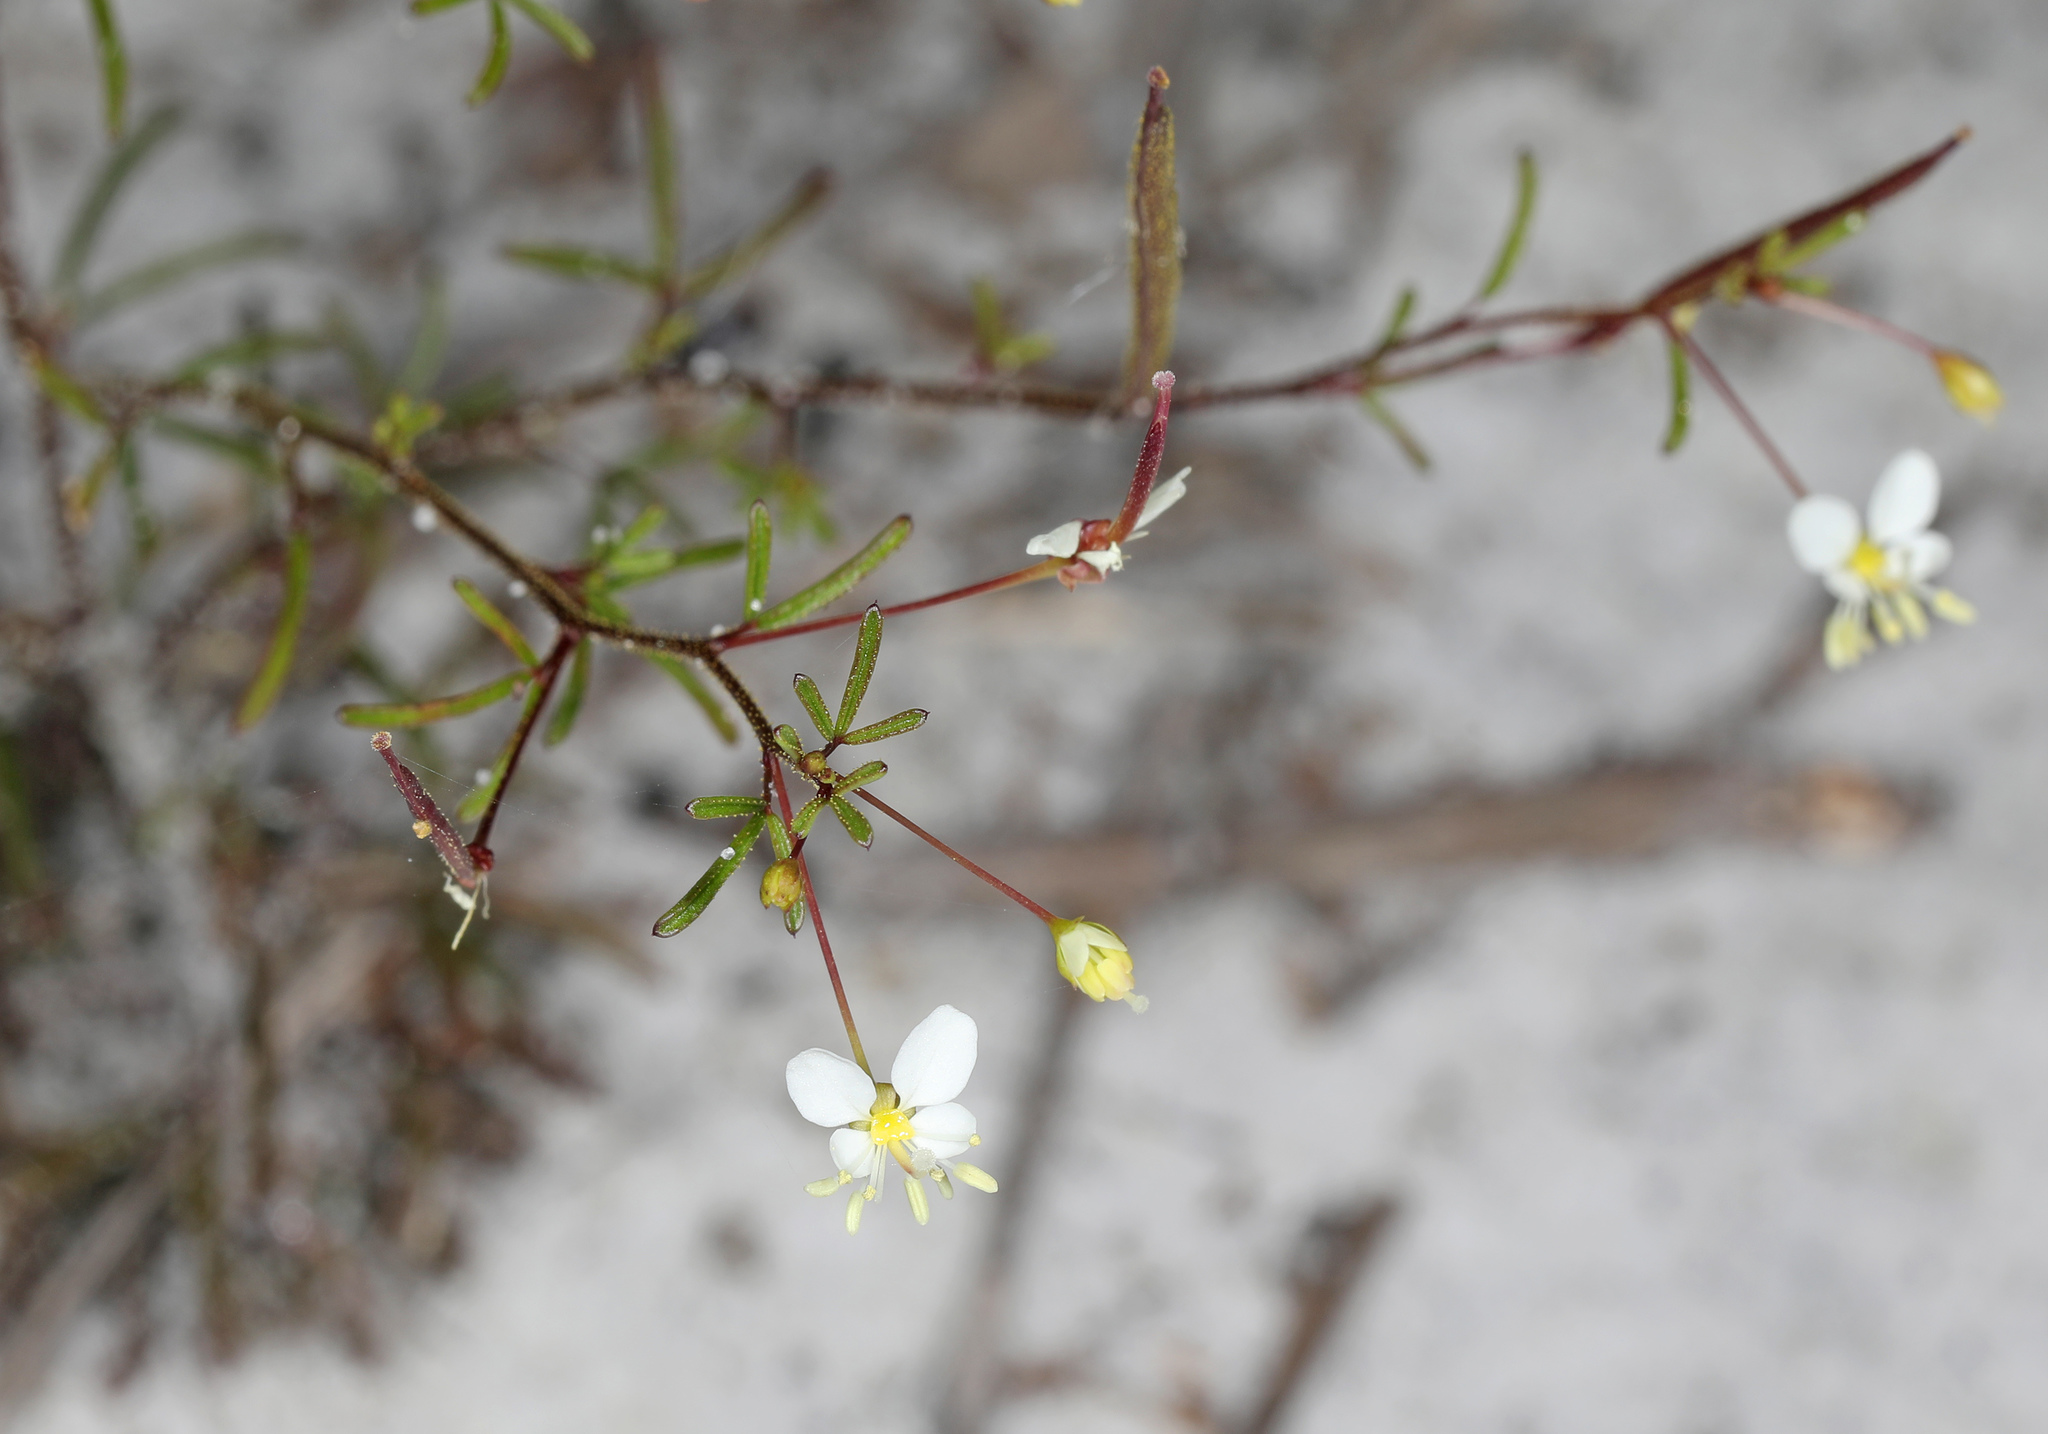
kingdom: Plantae
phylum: Tracheophyta
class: Magnoliopsida
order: Brassicales
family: Cleomaceae
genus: Polanisia
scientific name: Polanisia tenuifolia
